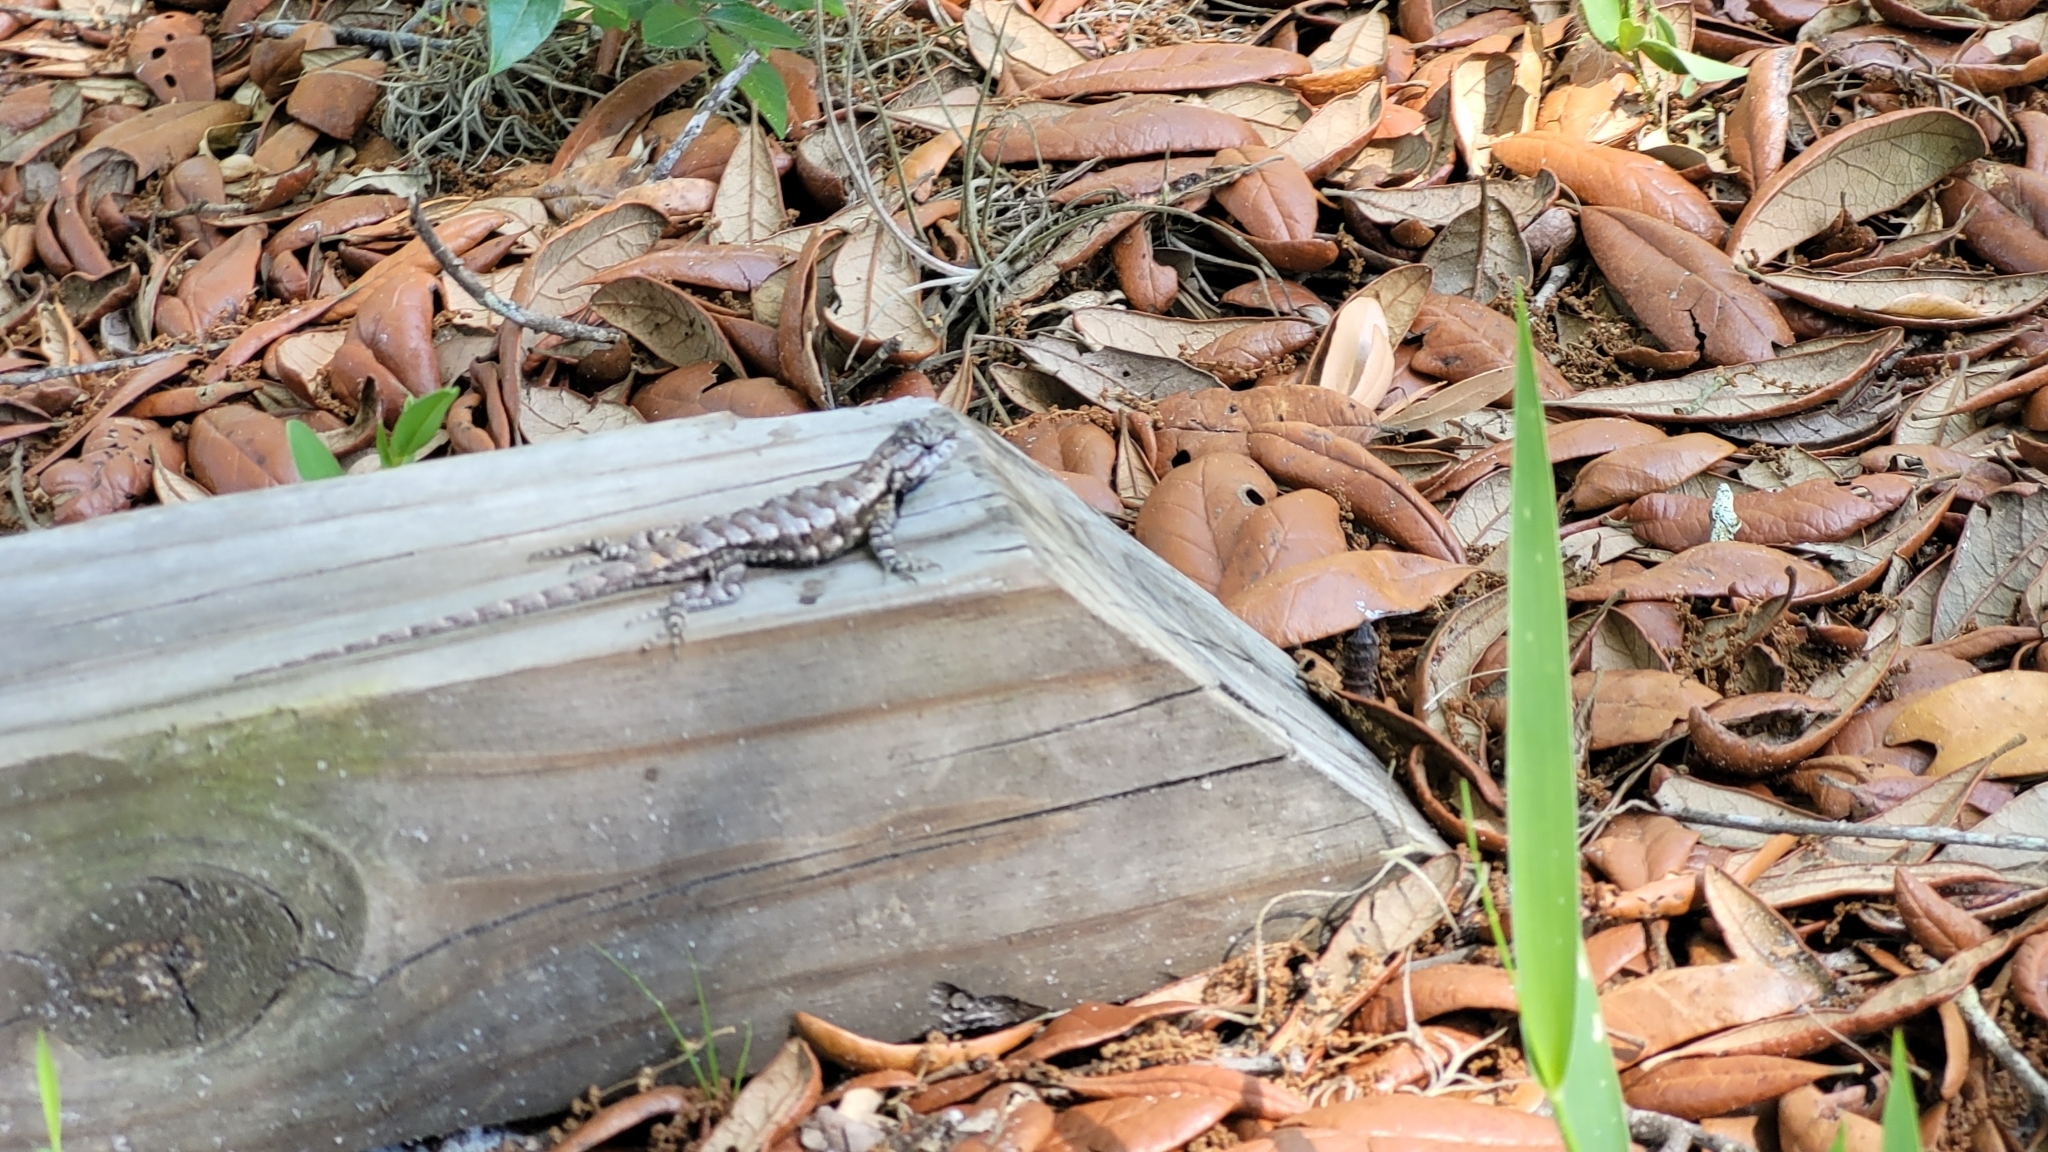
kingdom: Animalia
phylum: Chordata
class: Squamata
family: Phrynosomatidae
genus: Sceloporus
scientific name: Sceloporus undulatus
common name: Eastern fence lizard
